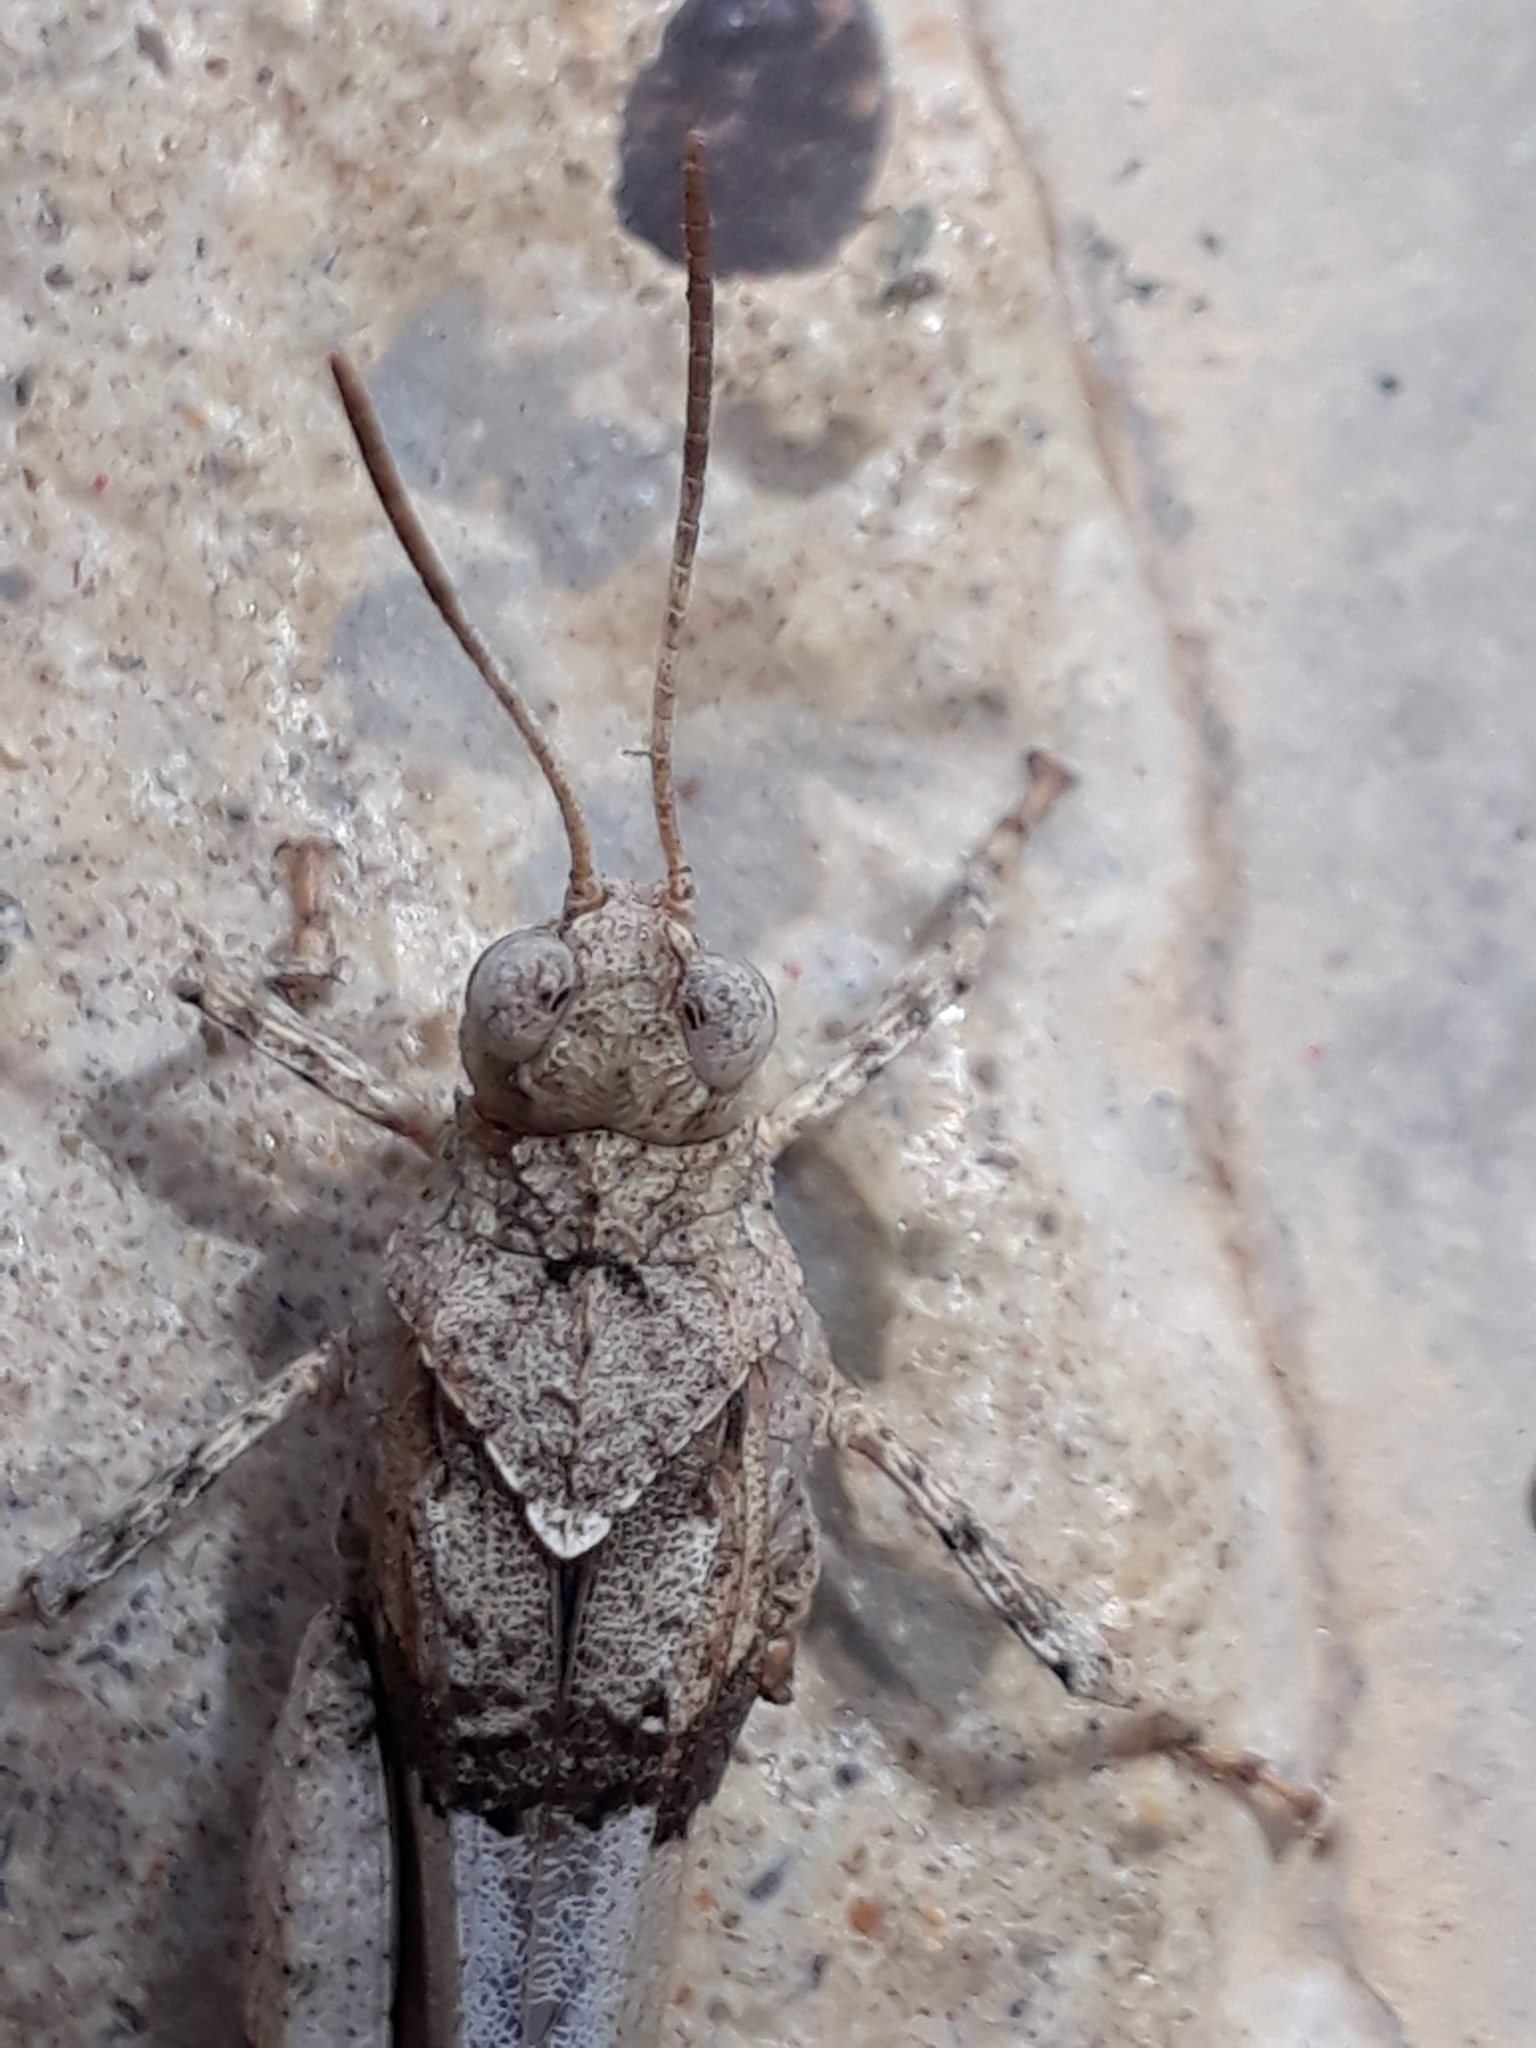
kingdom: Animalia
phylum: Arthropoda
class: Insecta
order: Orthoptera
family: Acrididae
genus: Oedipoda
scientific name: Oedipoda caerulescens
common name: Blue-winged grasshopper
